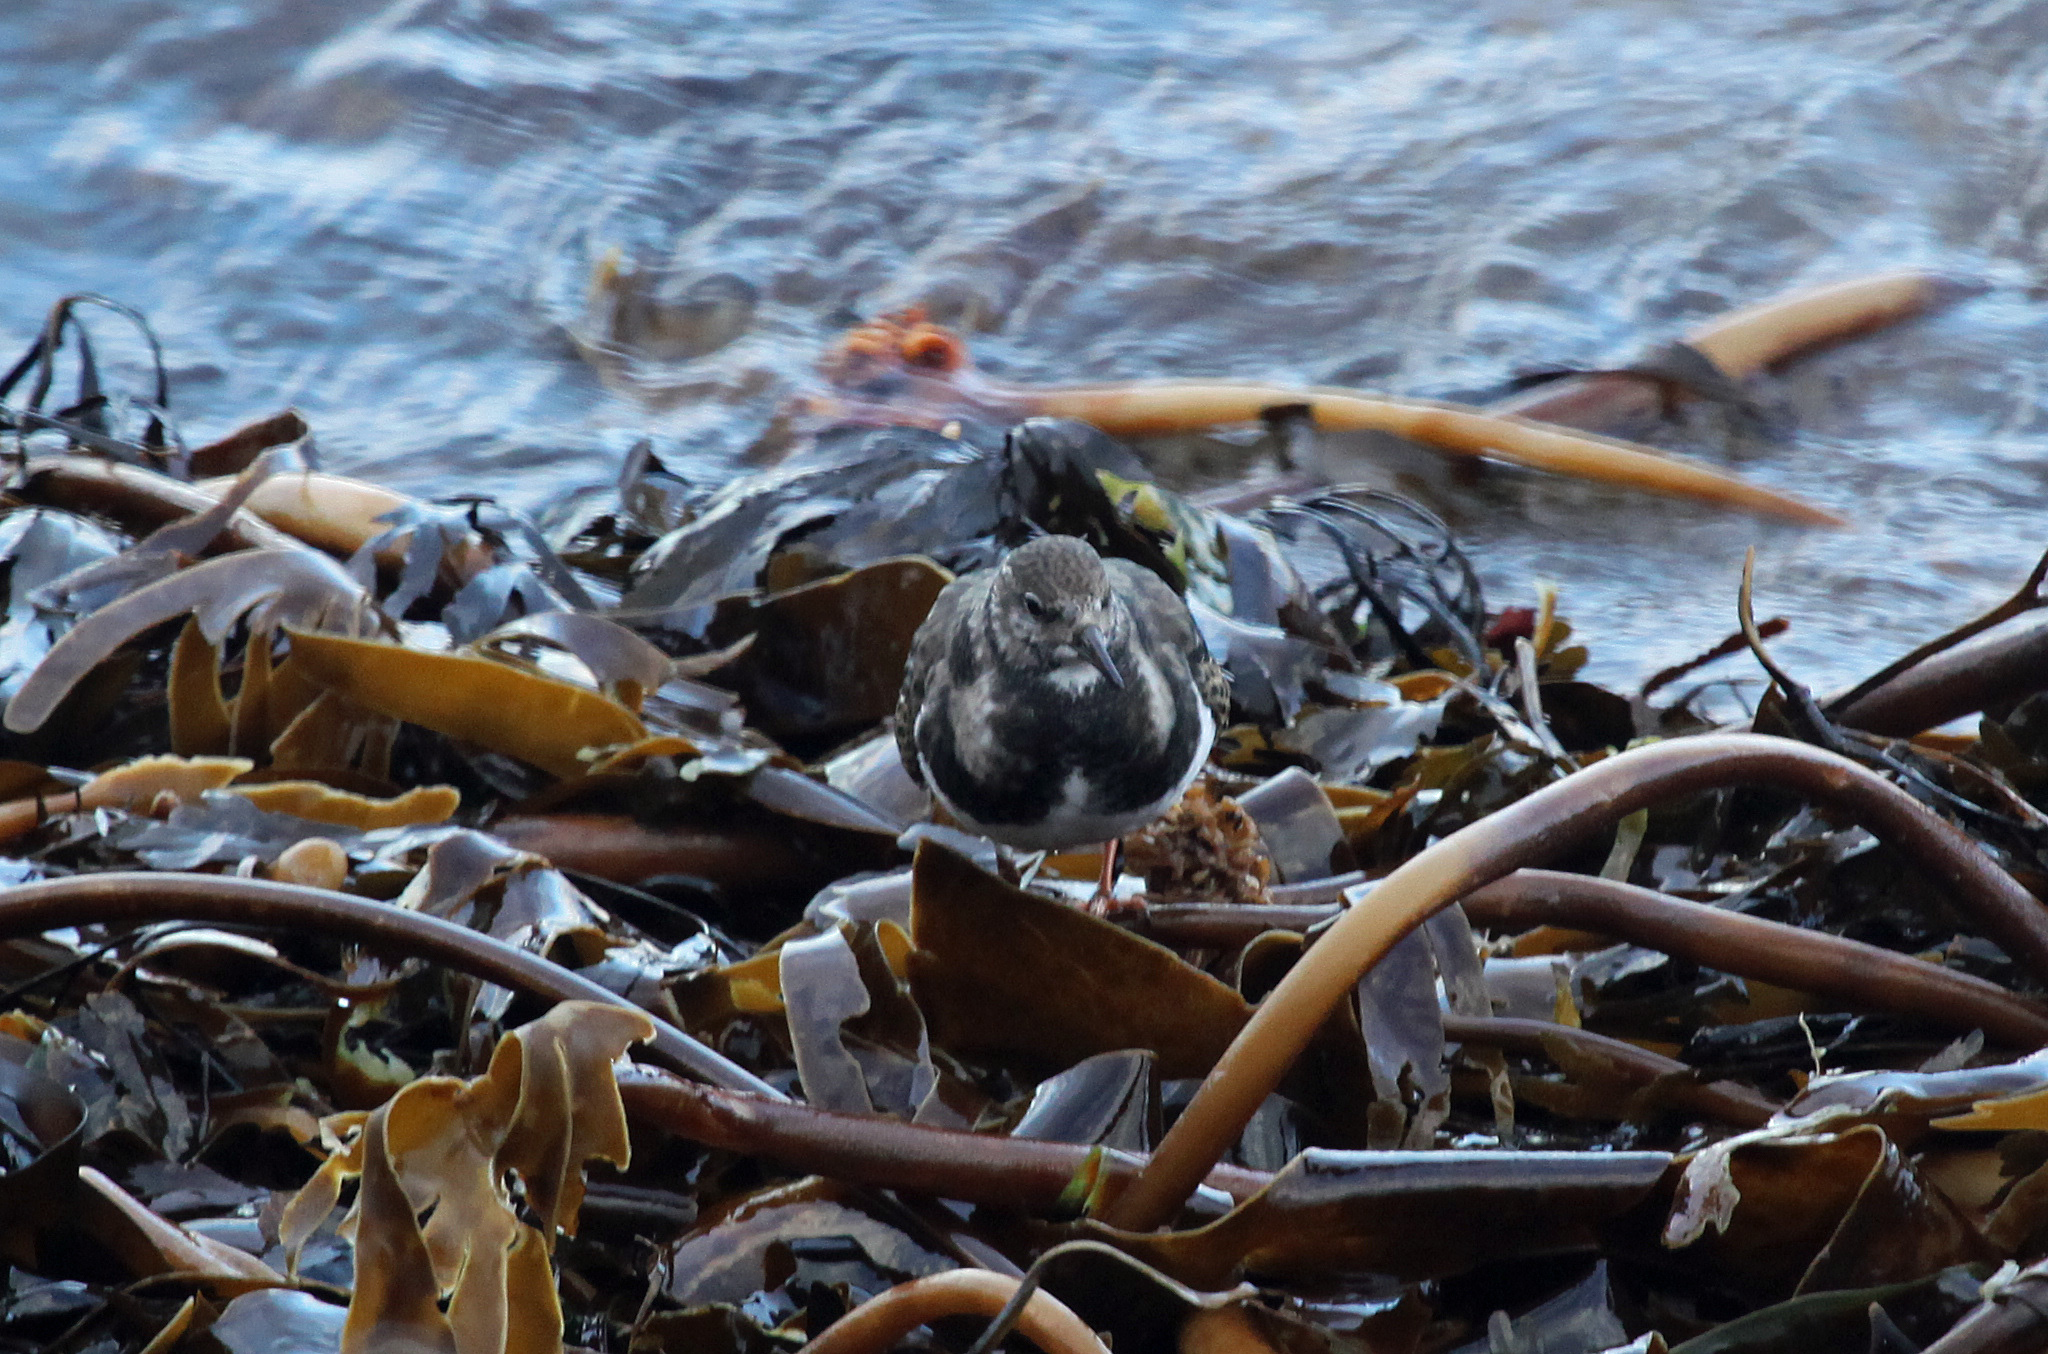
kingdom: Animalia
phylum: Chordata
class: Aves
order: Charadriiformes
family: Scolopacidae
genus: Arenaria
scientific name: Arenaria interpres
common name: Ruddy turnstone
